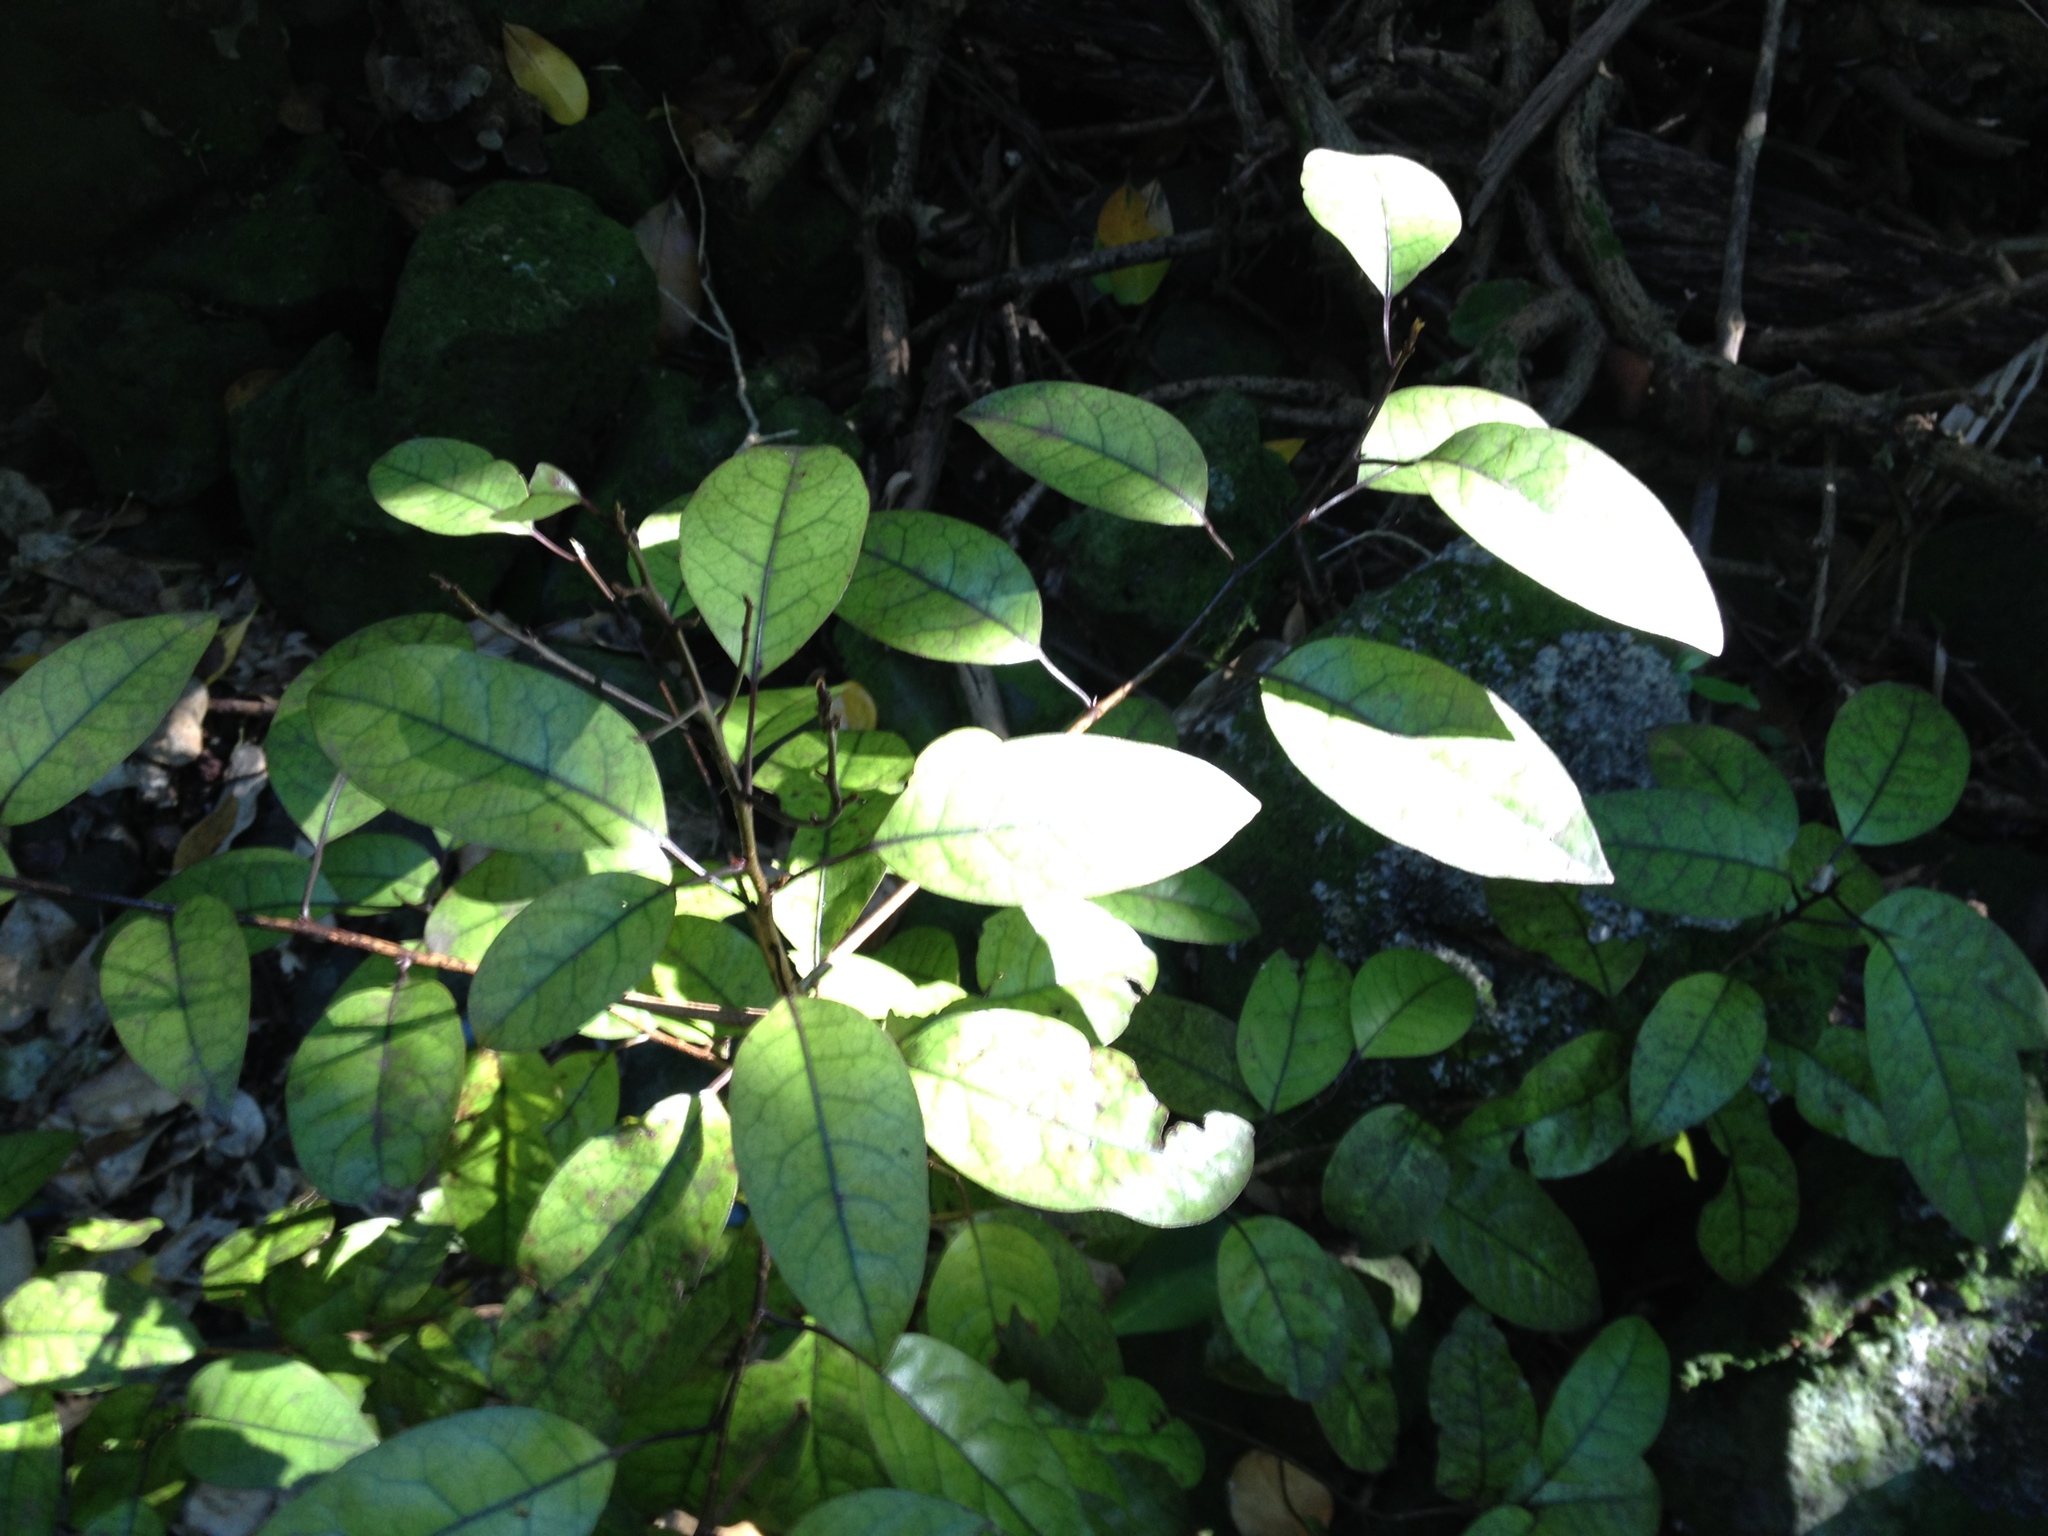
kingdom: Plantae
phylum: Tracheophyta
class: Magnoliopsida
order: Laurales
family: Lauraceae
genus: Litsea
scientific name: Litsea calicaris
